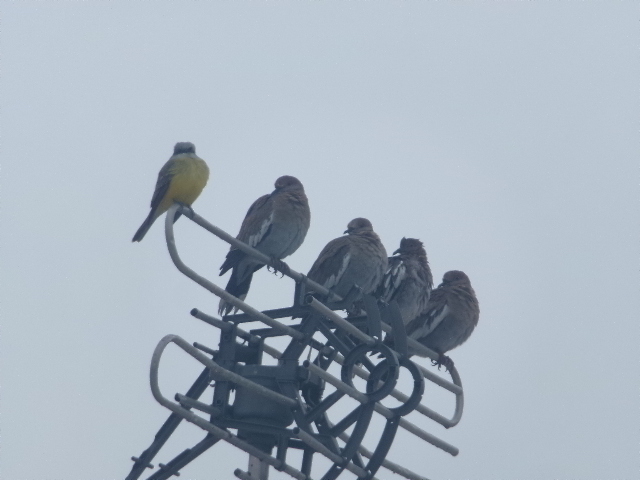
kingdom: Animalia
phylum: Chordata
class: Aves
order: Columbiformes
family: Columbidae
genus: Zenaida
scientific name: Zenaida asiatica
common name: White-winged dove
